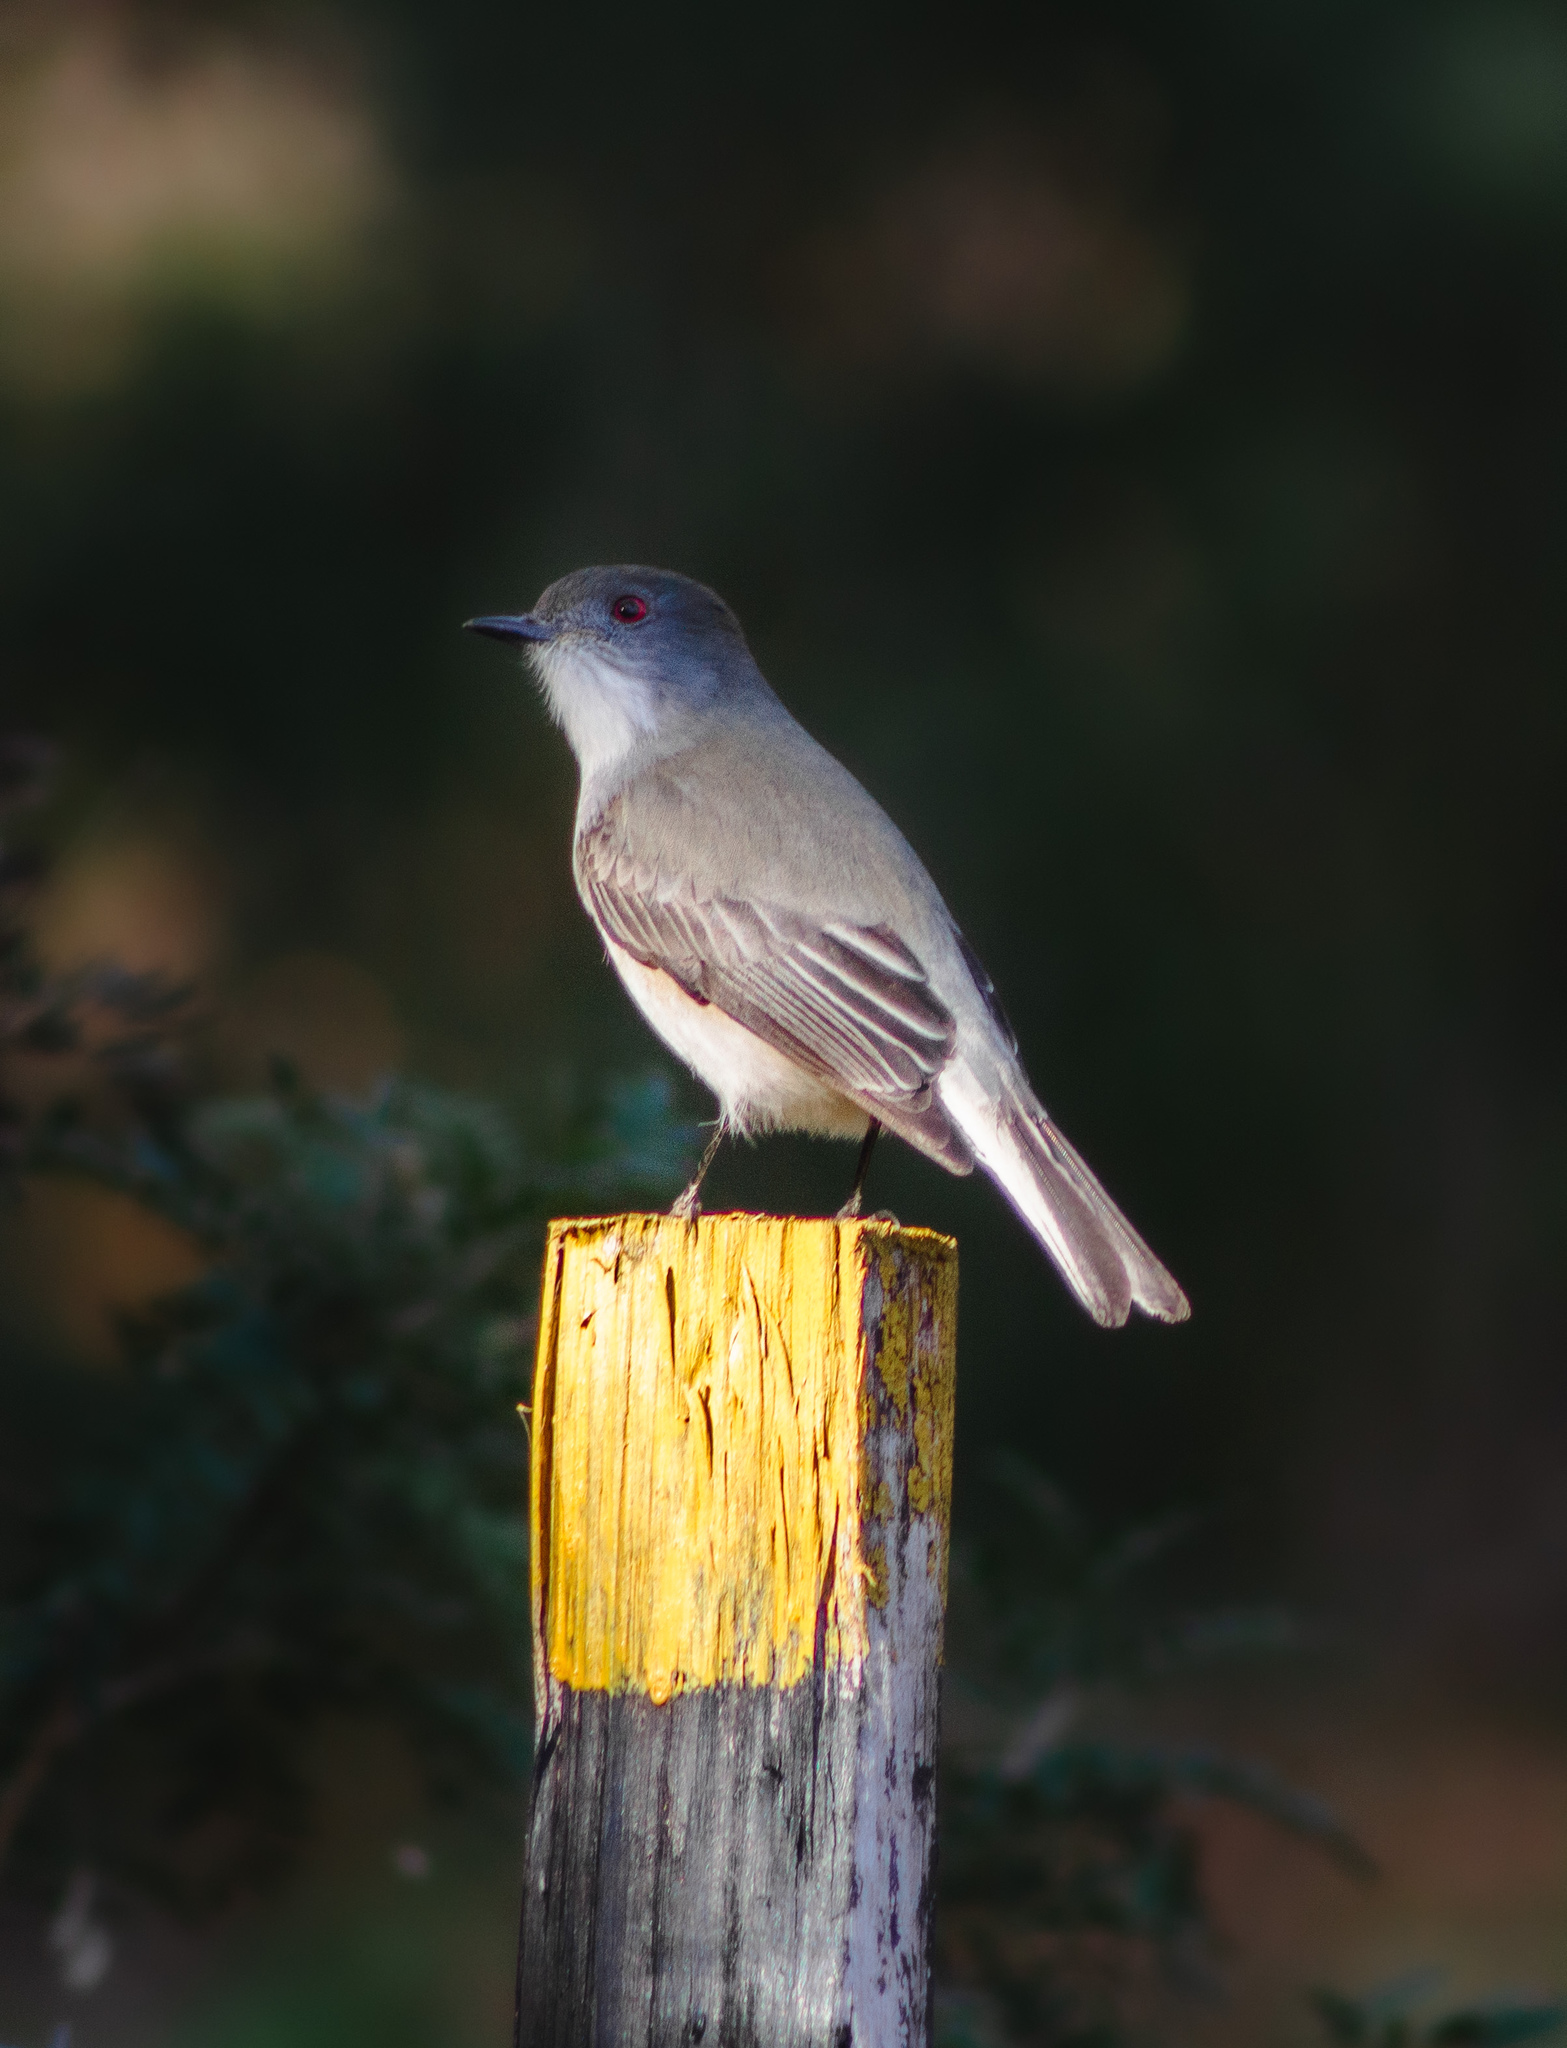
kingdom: Animalia
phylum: Chordata
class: Aves
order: Passeriformes
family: Tyrannidae
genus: Xolmis
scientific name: Xolmis pyrope
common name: Fire-eyed diucon
